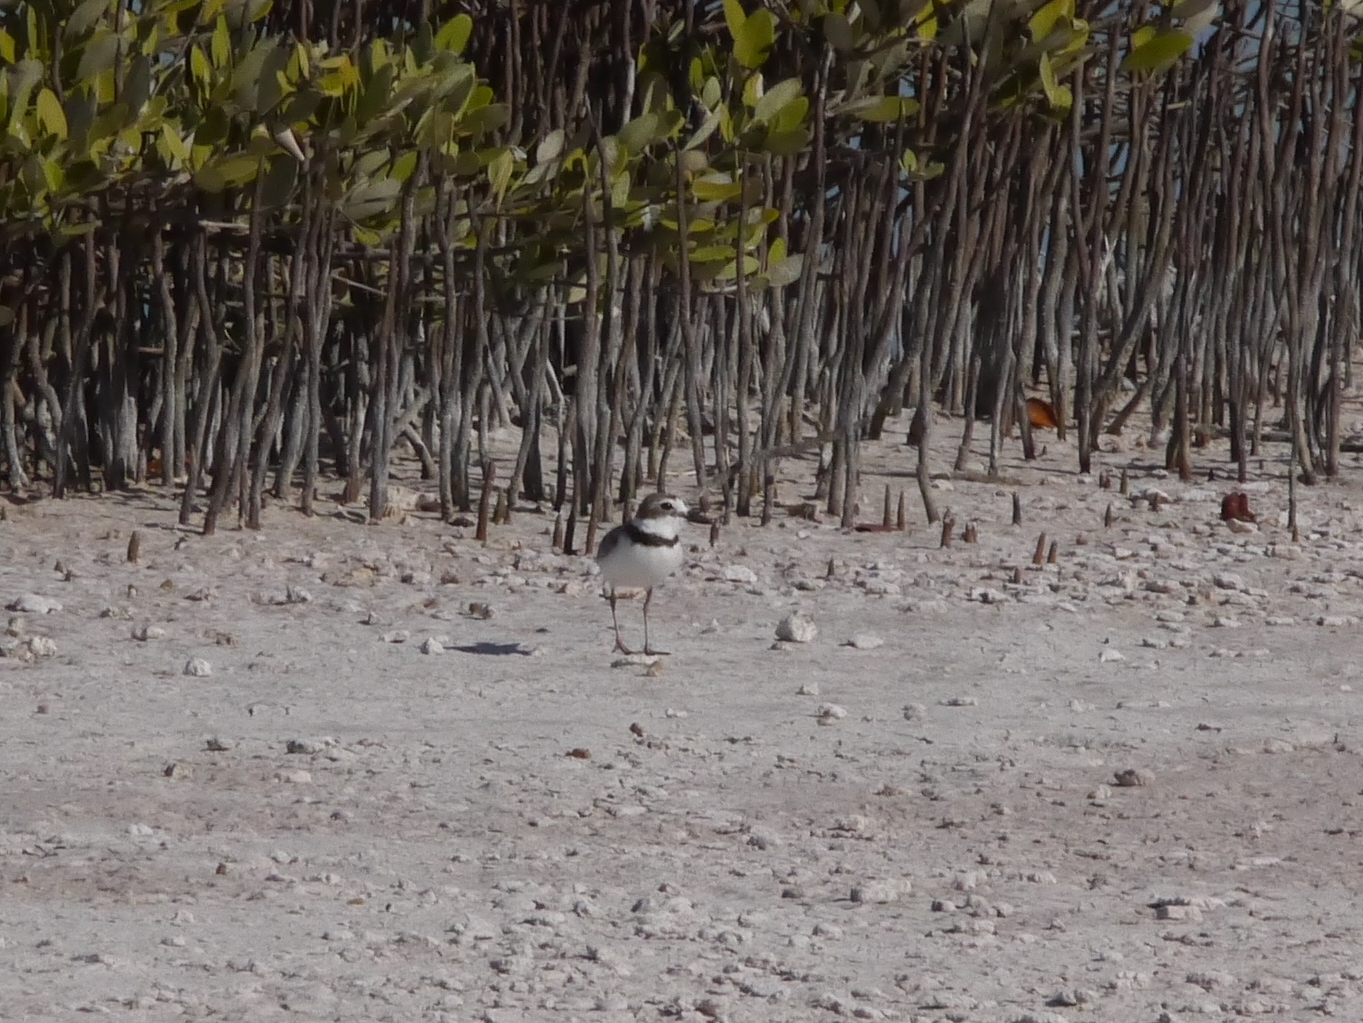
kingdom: Animalia
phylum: Chordata
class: Aves
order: Charadriiformes
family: Charadriidae
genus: Anarhynchus
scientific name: Anarhynchus
